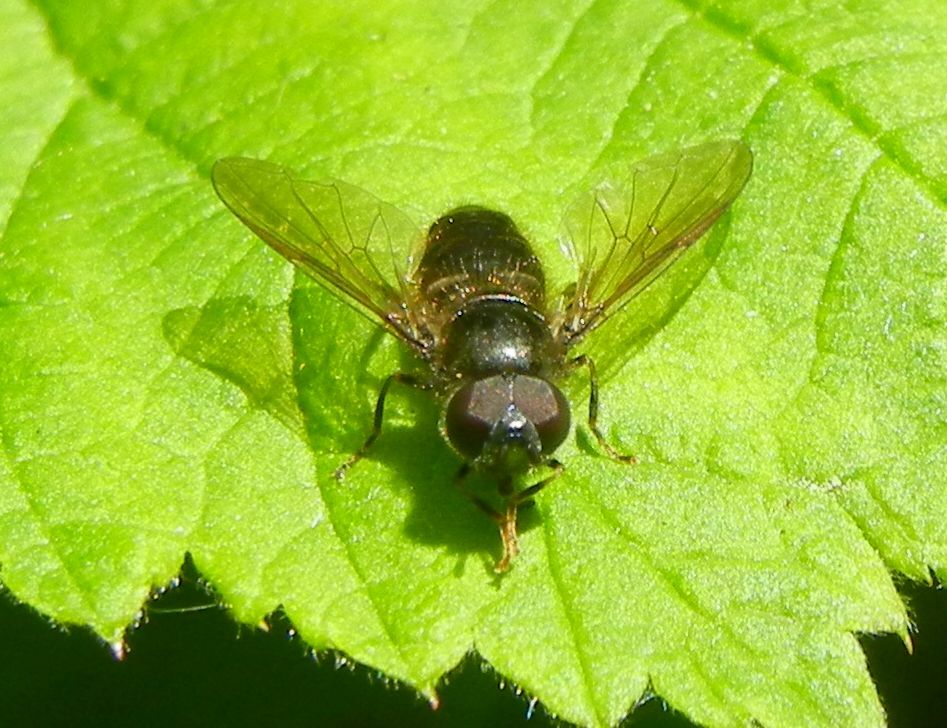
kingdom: Animalia
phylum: Arthropoda
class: Insecta
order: Diptera
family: Syrphidae
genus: Pipiza
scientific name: Pipiza luteitarsis
